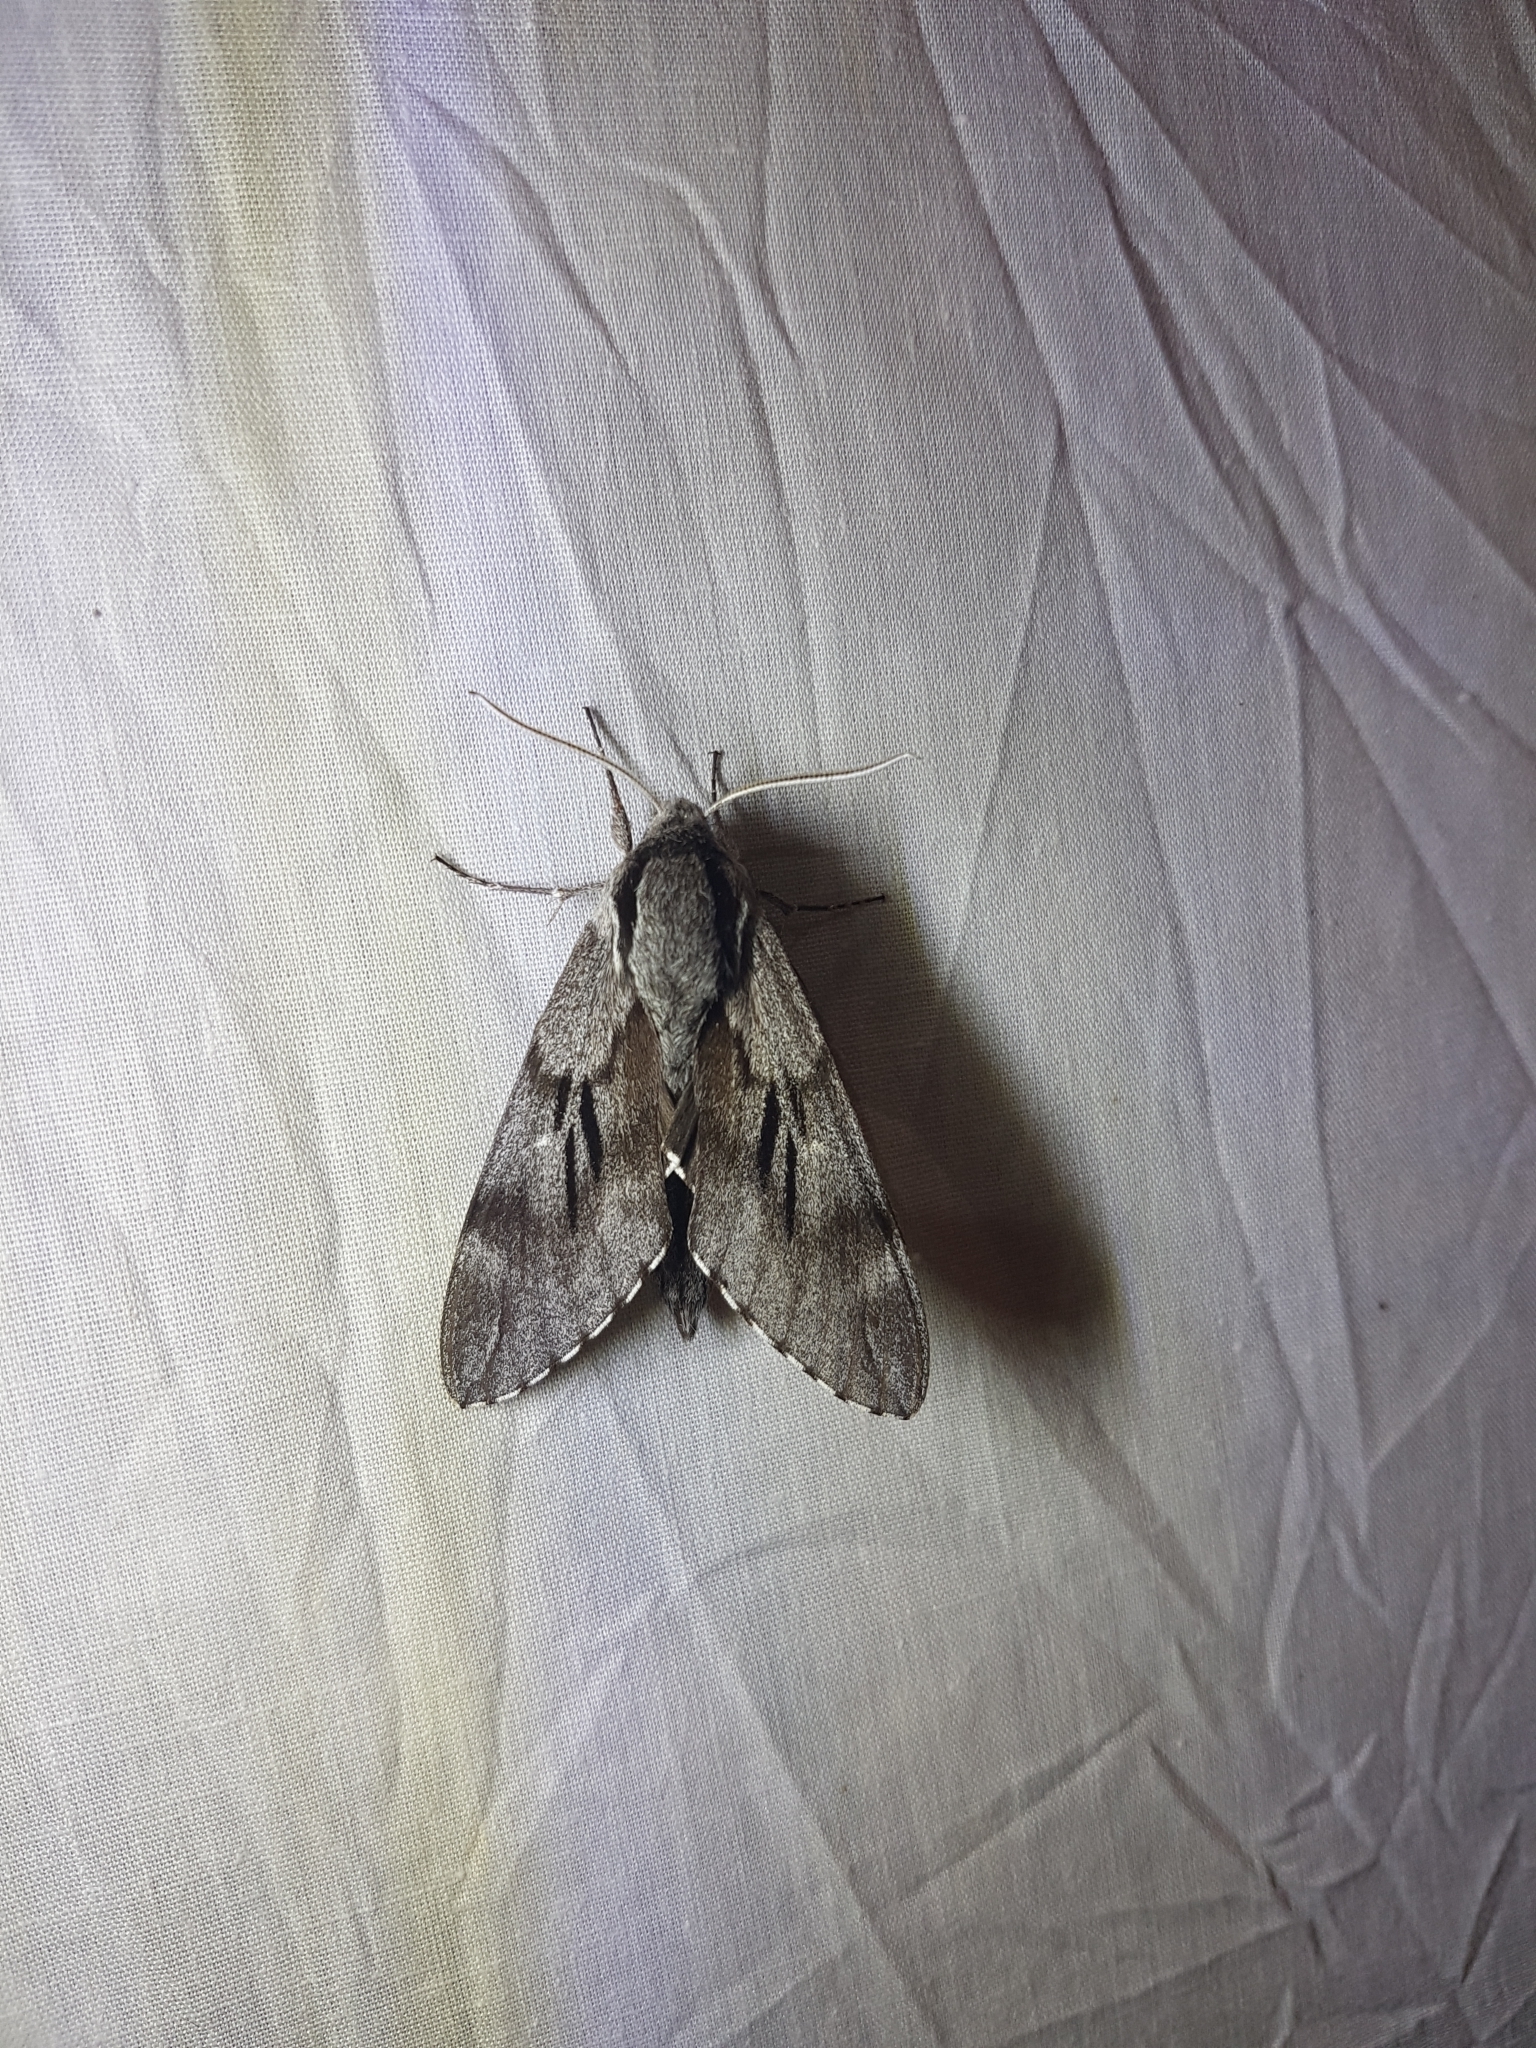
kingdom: Animalia
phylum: Arthropoda
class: Insecta
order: Lepidoptera
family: Sphingidae
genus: Sphinx
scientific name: Sphinx maurorum
